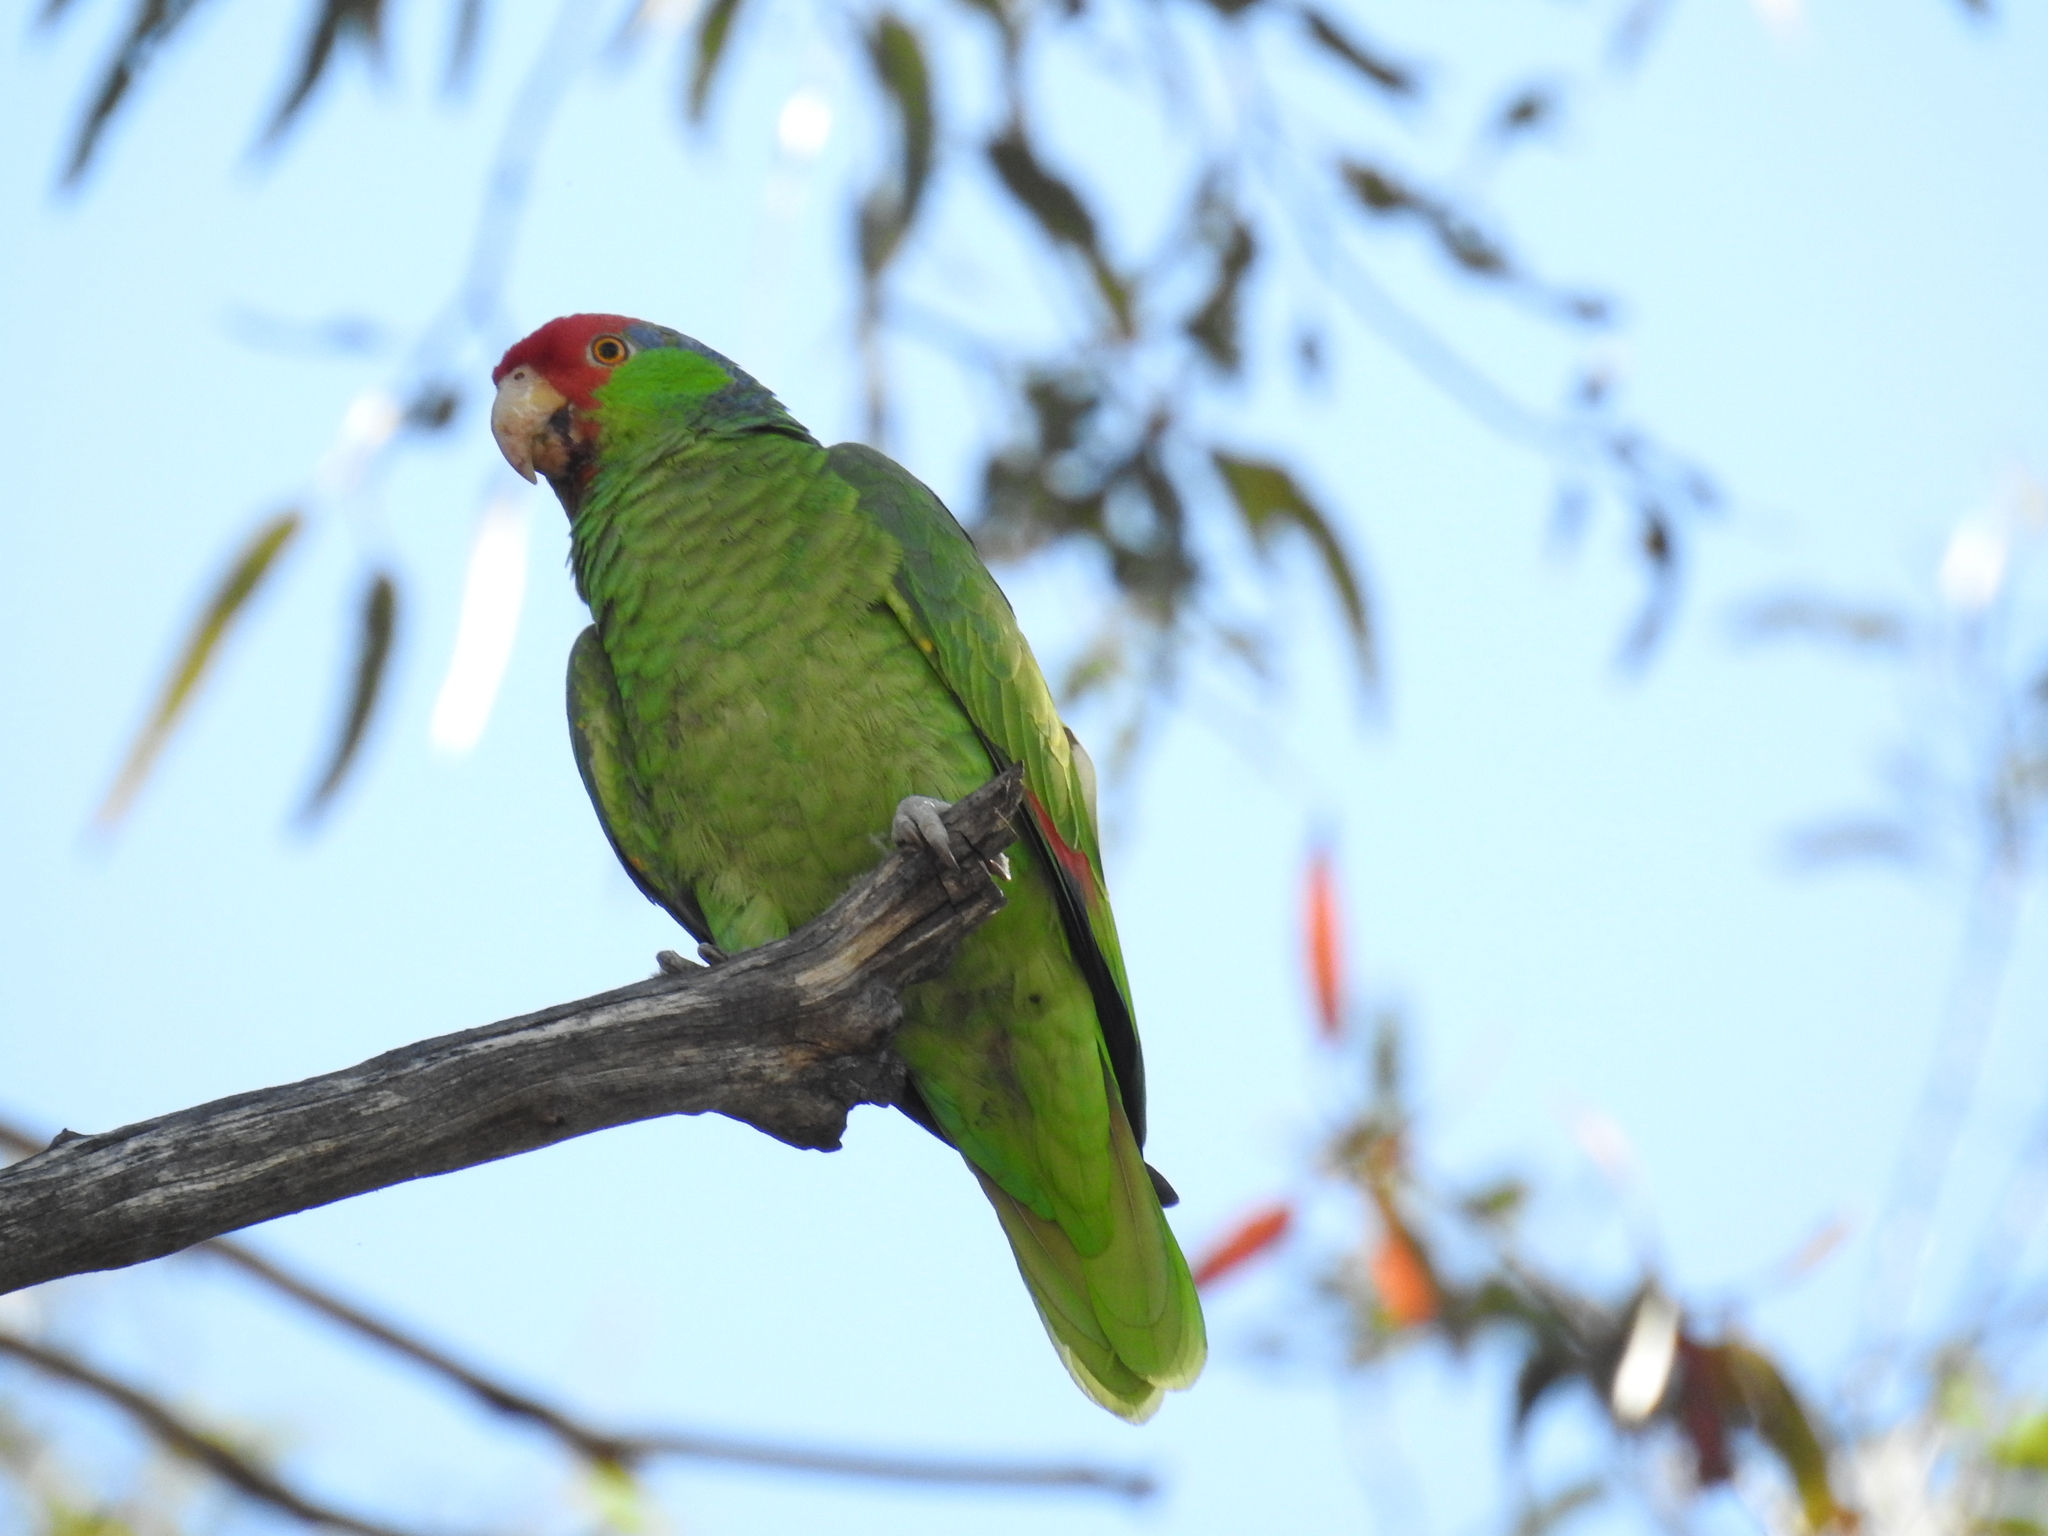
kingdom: Animalia
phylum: Chordata
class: Aves
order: Psittaciformes
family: Psittacidae
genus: Amazona
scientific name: Amazona viridigenalis
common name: Red-crowned amazon
